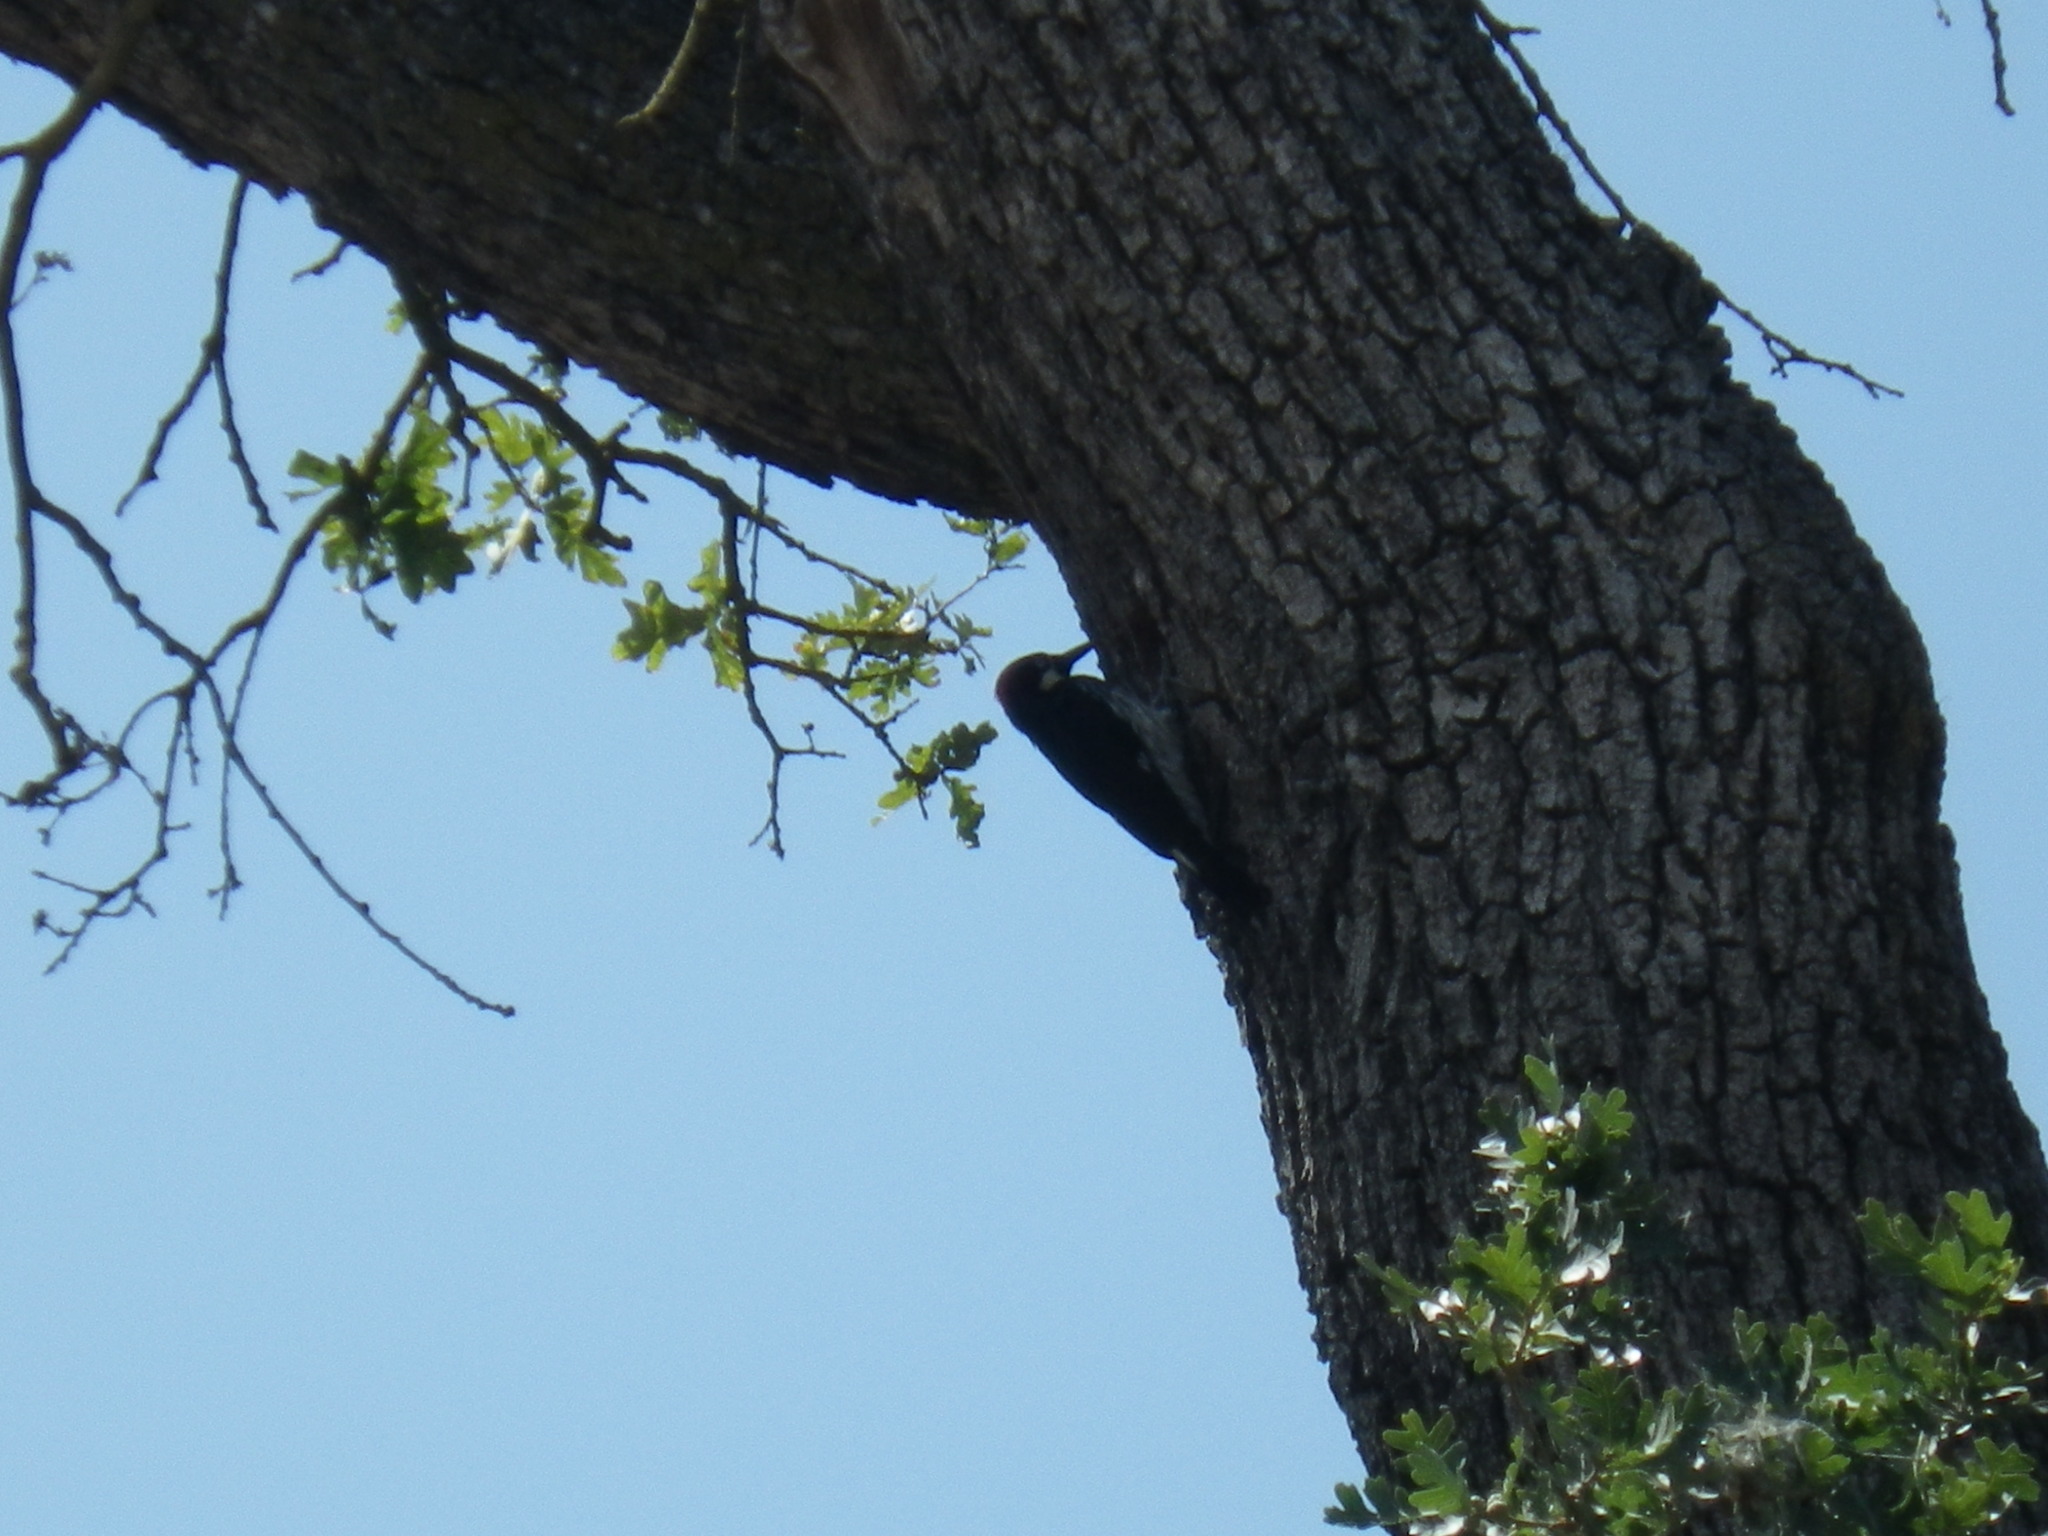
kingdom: Animalia
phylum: Chordata
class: Aves
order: Piciformes
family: Picidae
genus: Melanerpes
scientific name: Melanerpes formicivorus
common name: Acorn woodpecker
